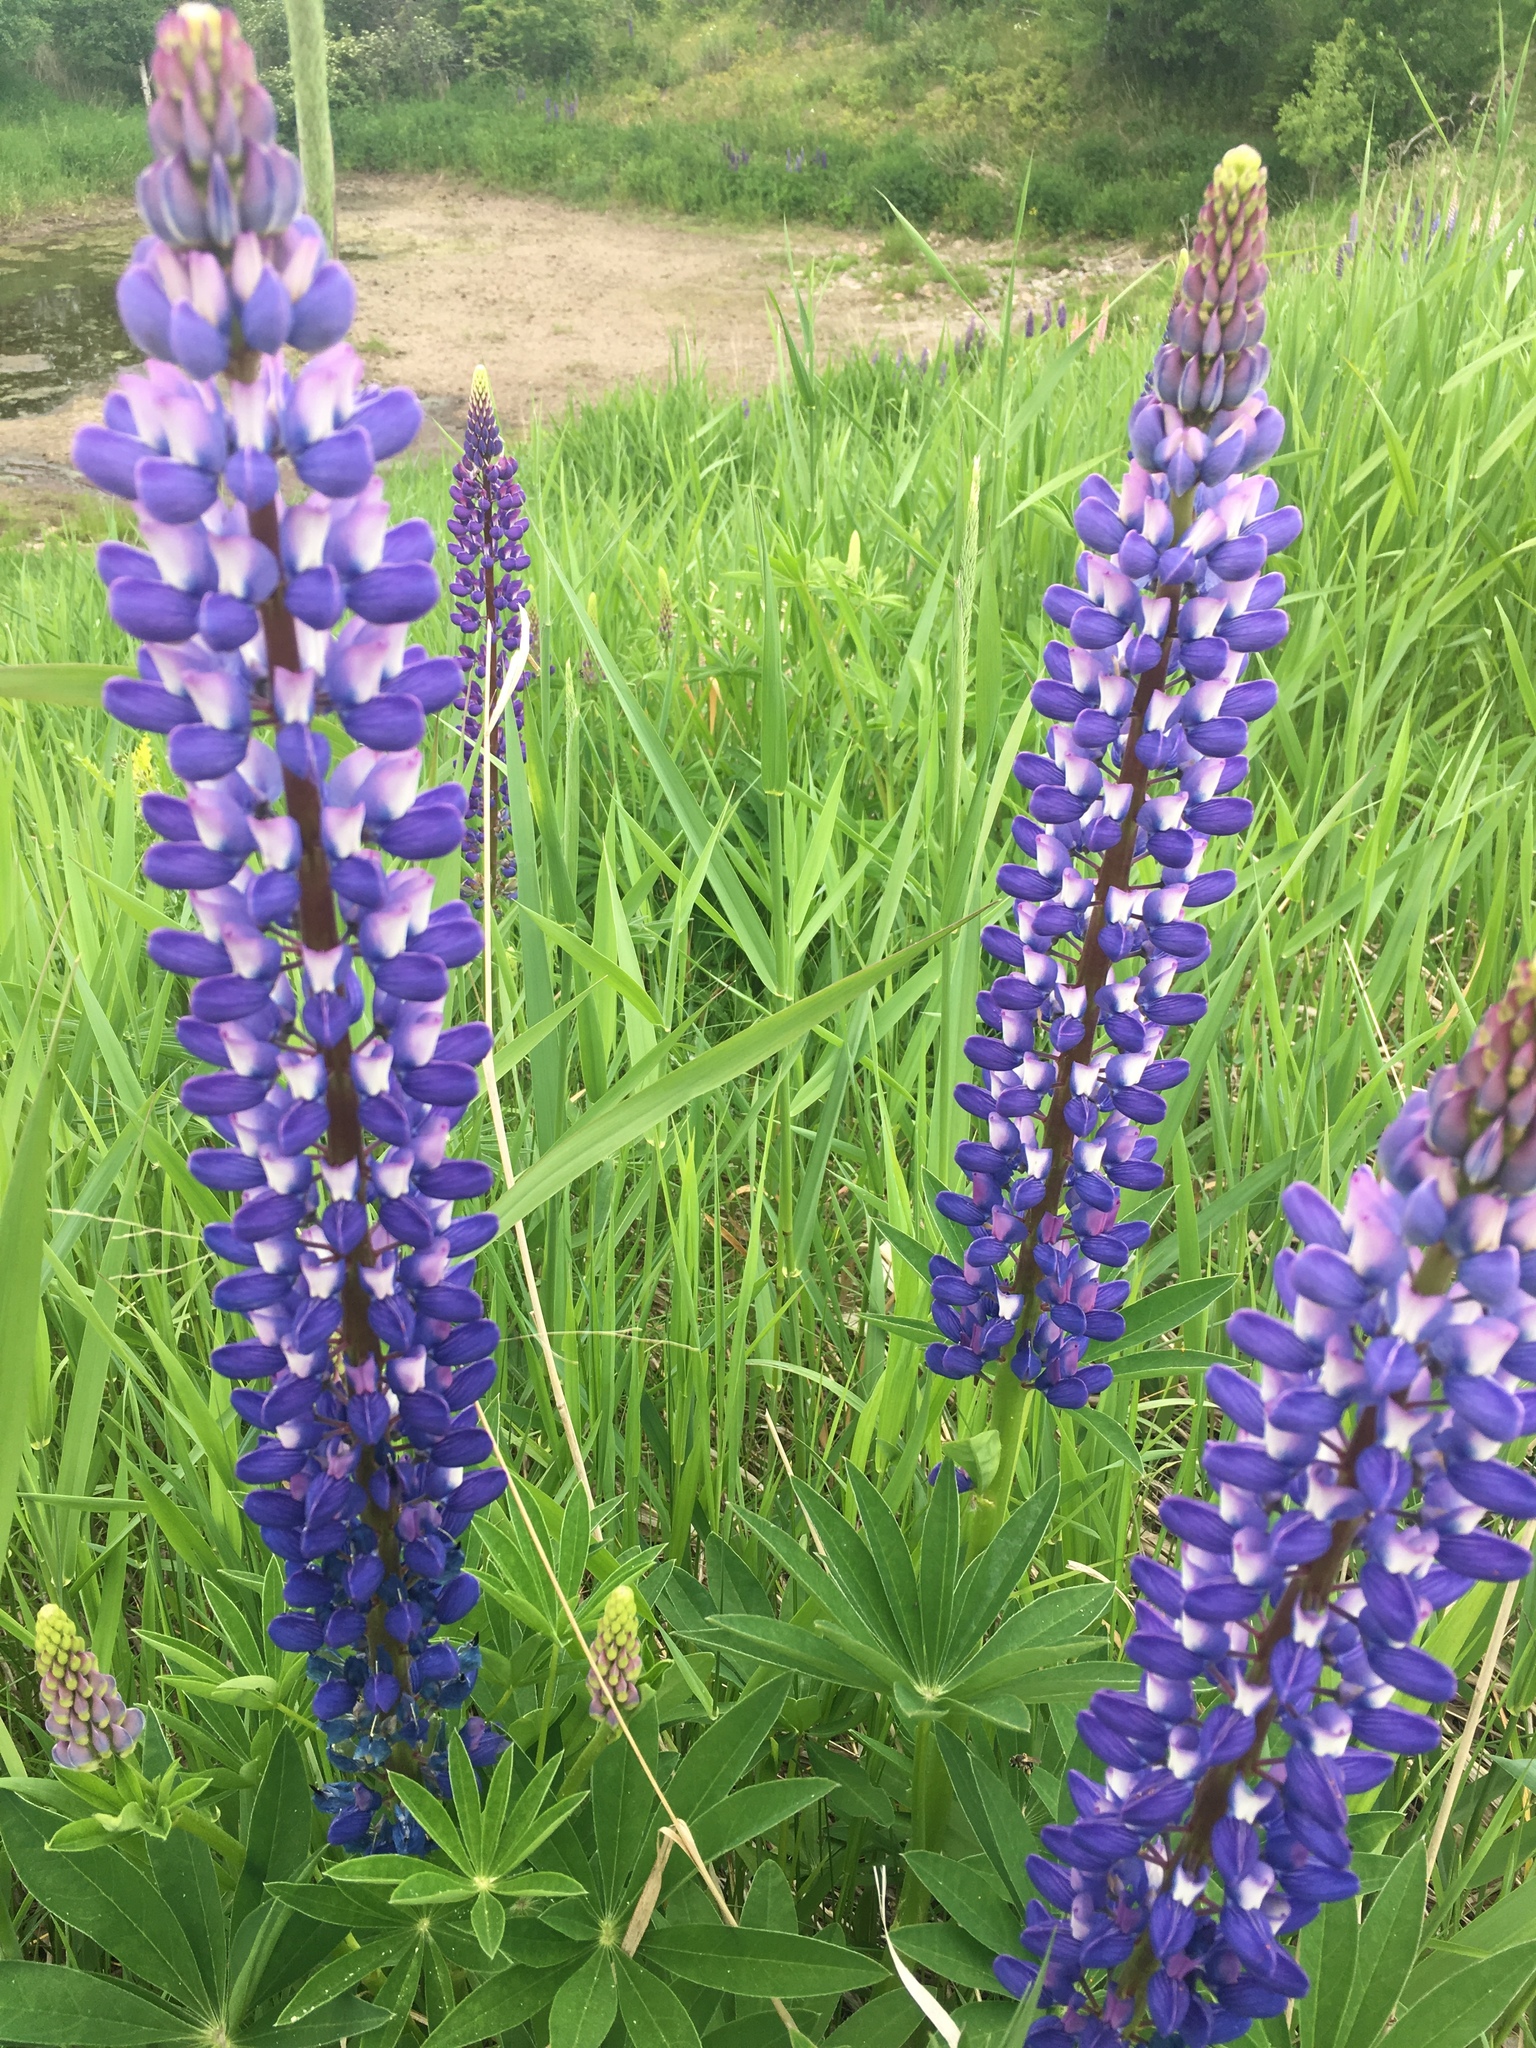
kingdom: Plantae
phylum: Tracheophyta
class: Magnoliopsida
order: Fabales
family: Fabaceae
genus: Lupinus
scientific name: Lupinus polyphyllus
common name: Garden lupin
